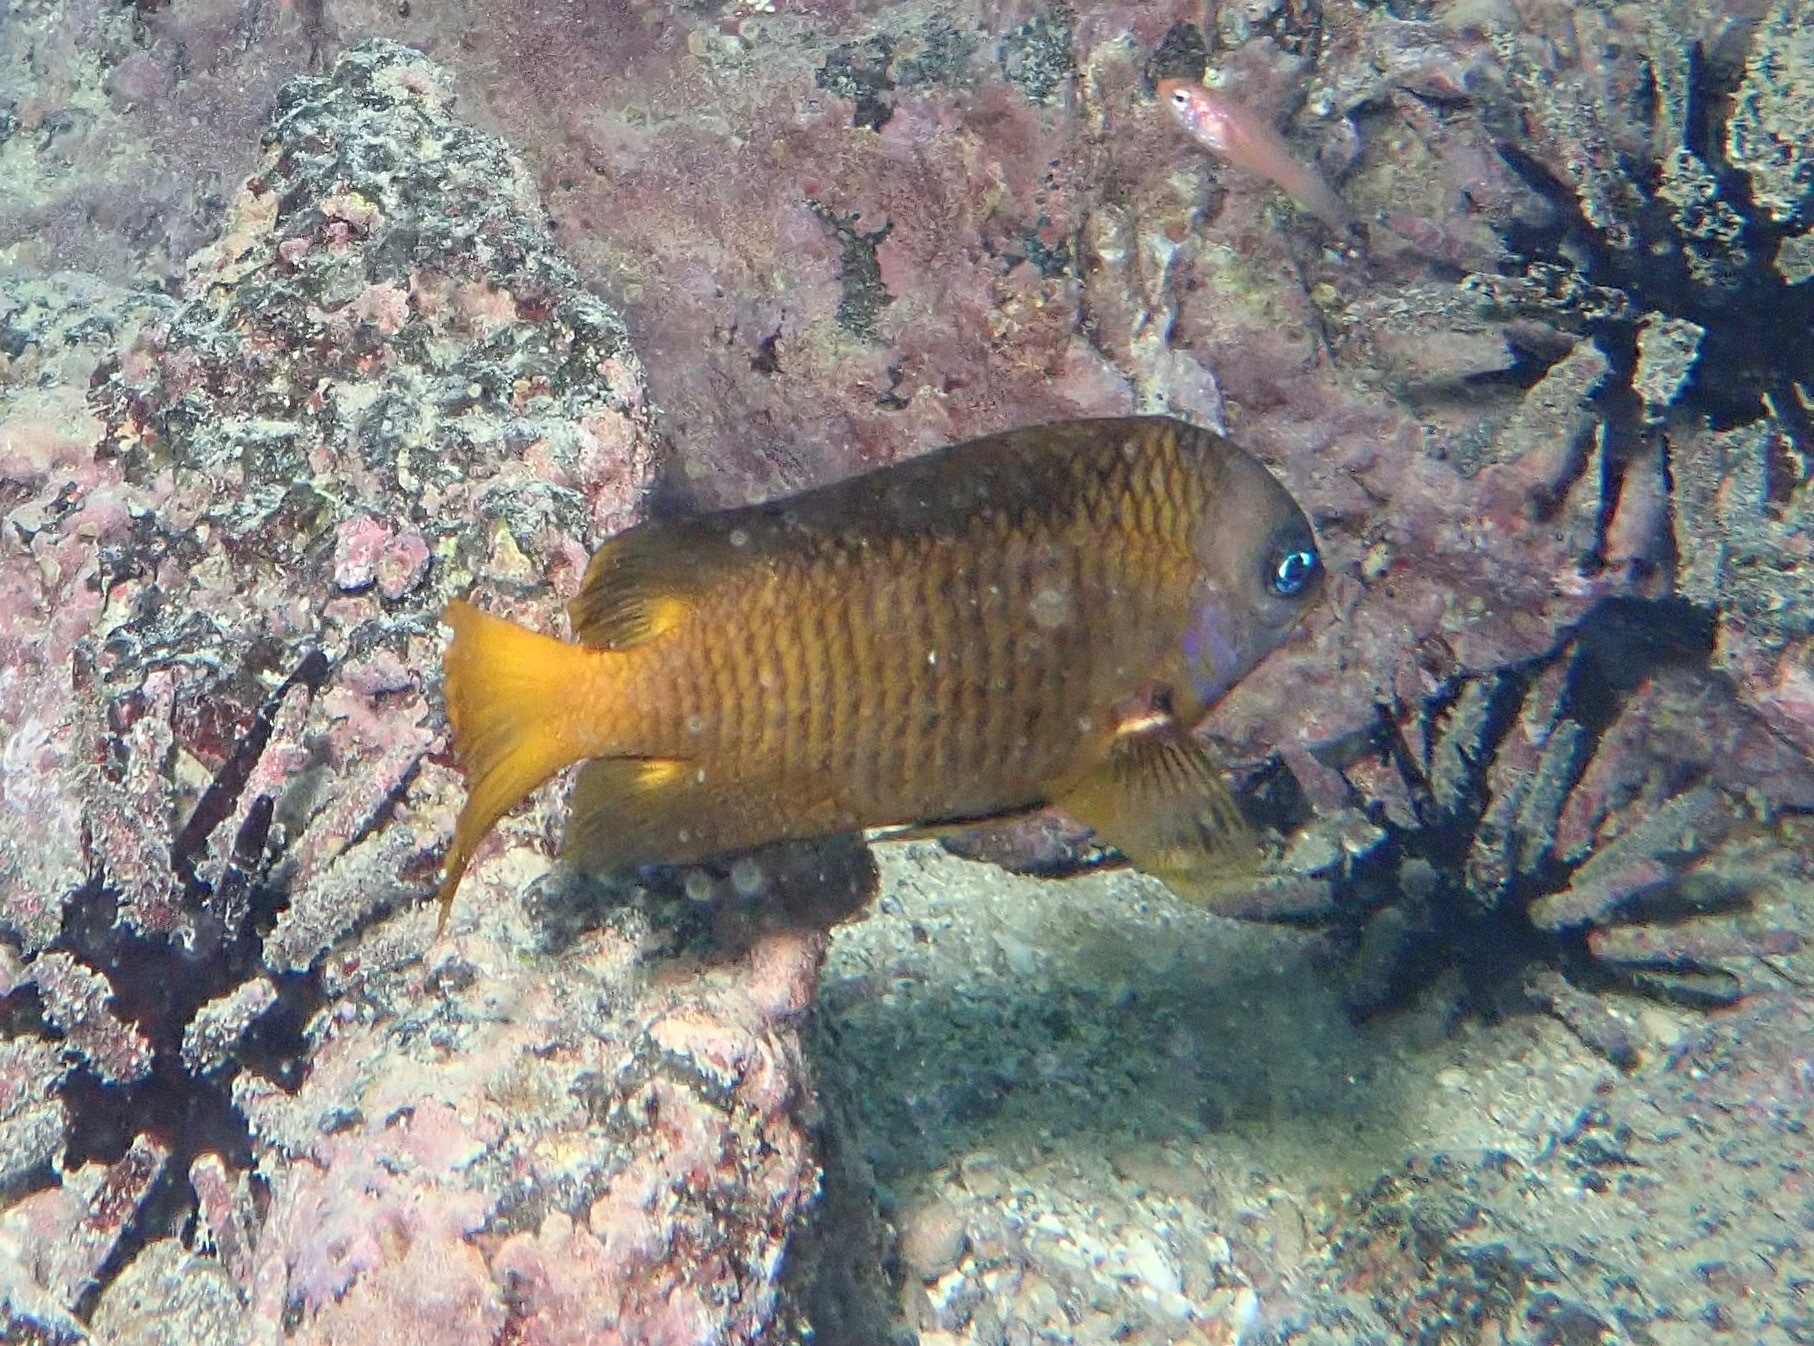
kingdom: Animalia
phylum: Chordata
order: Perciformes
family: Pomacentridae
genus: Stegastes
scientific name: Stegastes arcifrons
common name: Galapagos gregory
